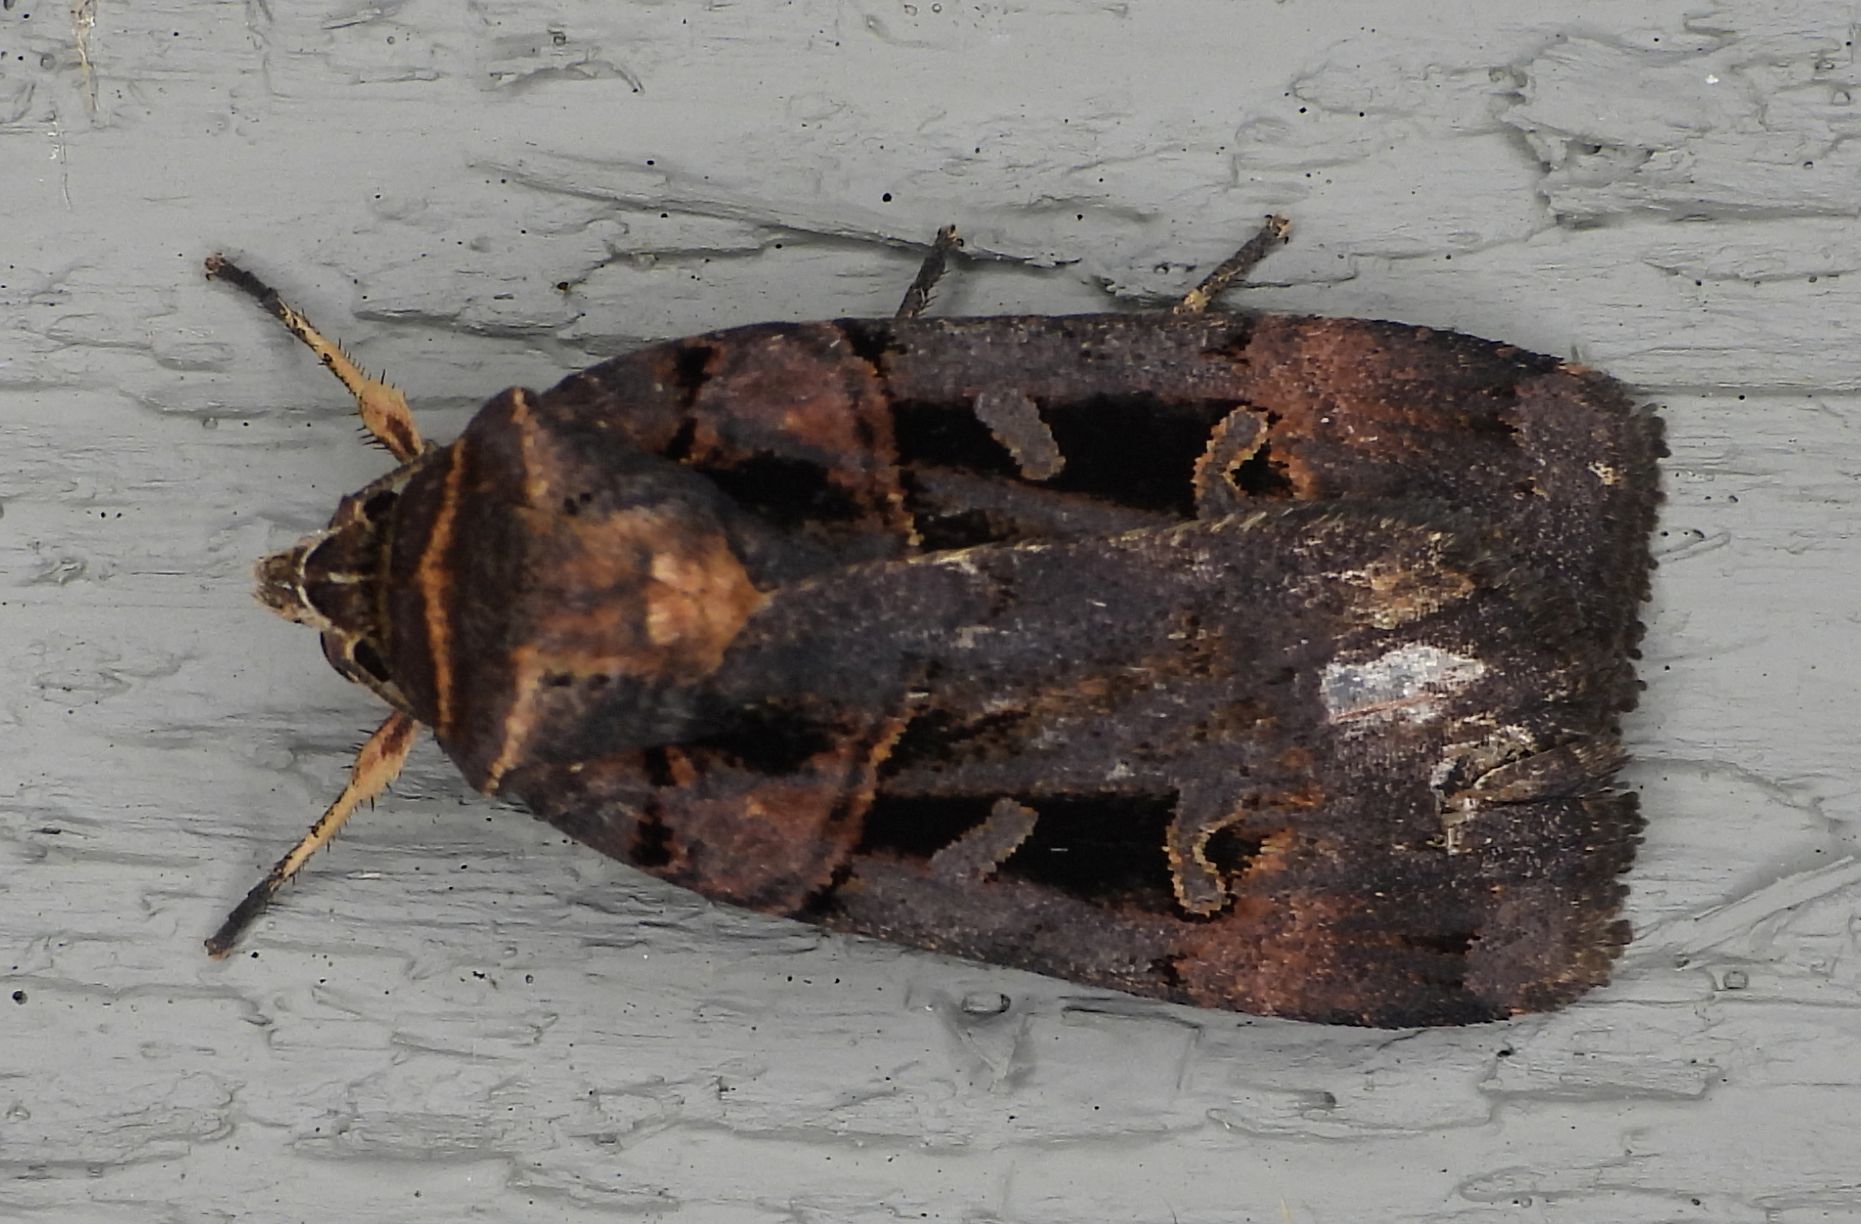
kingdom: Animalia
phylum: Arthropoda
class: Insecta
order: Lepidoptera
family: Noctuidae
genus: Pseudohermonassa
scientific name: Pseudohermonassa bicarnea
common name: Pink spotted dart
